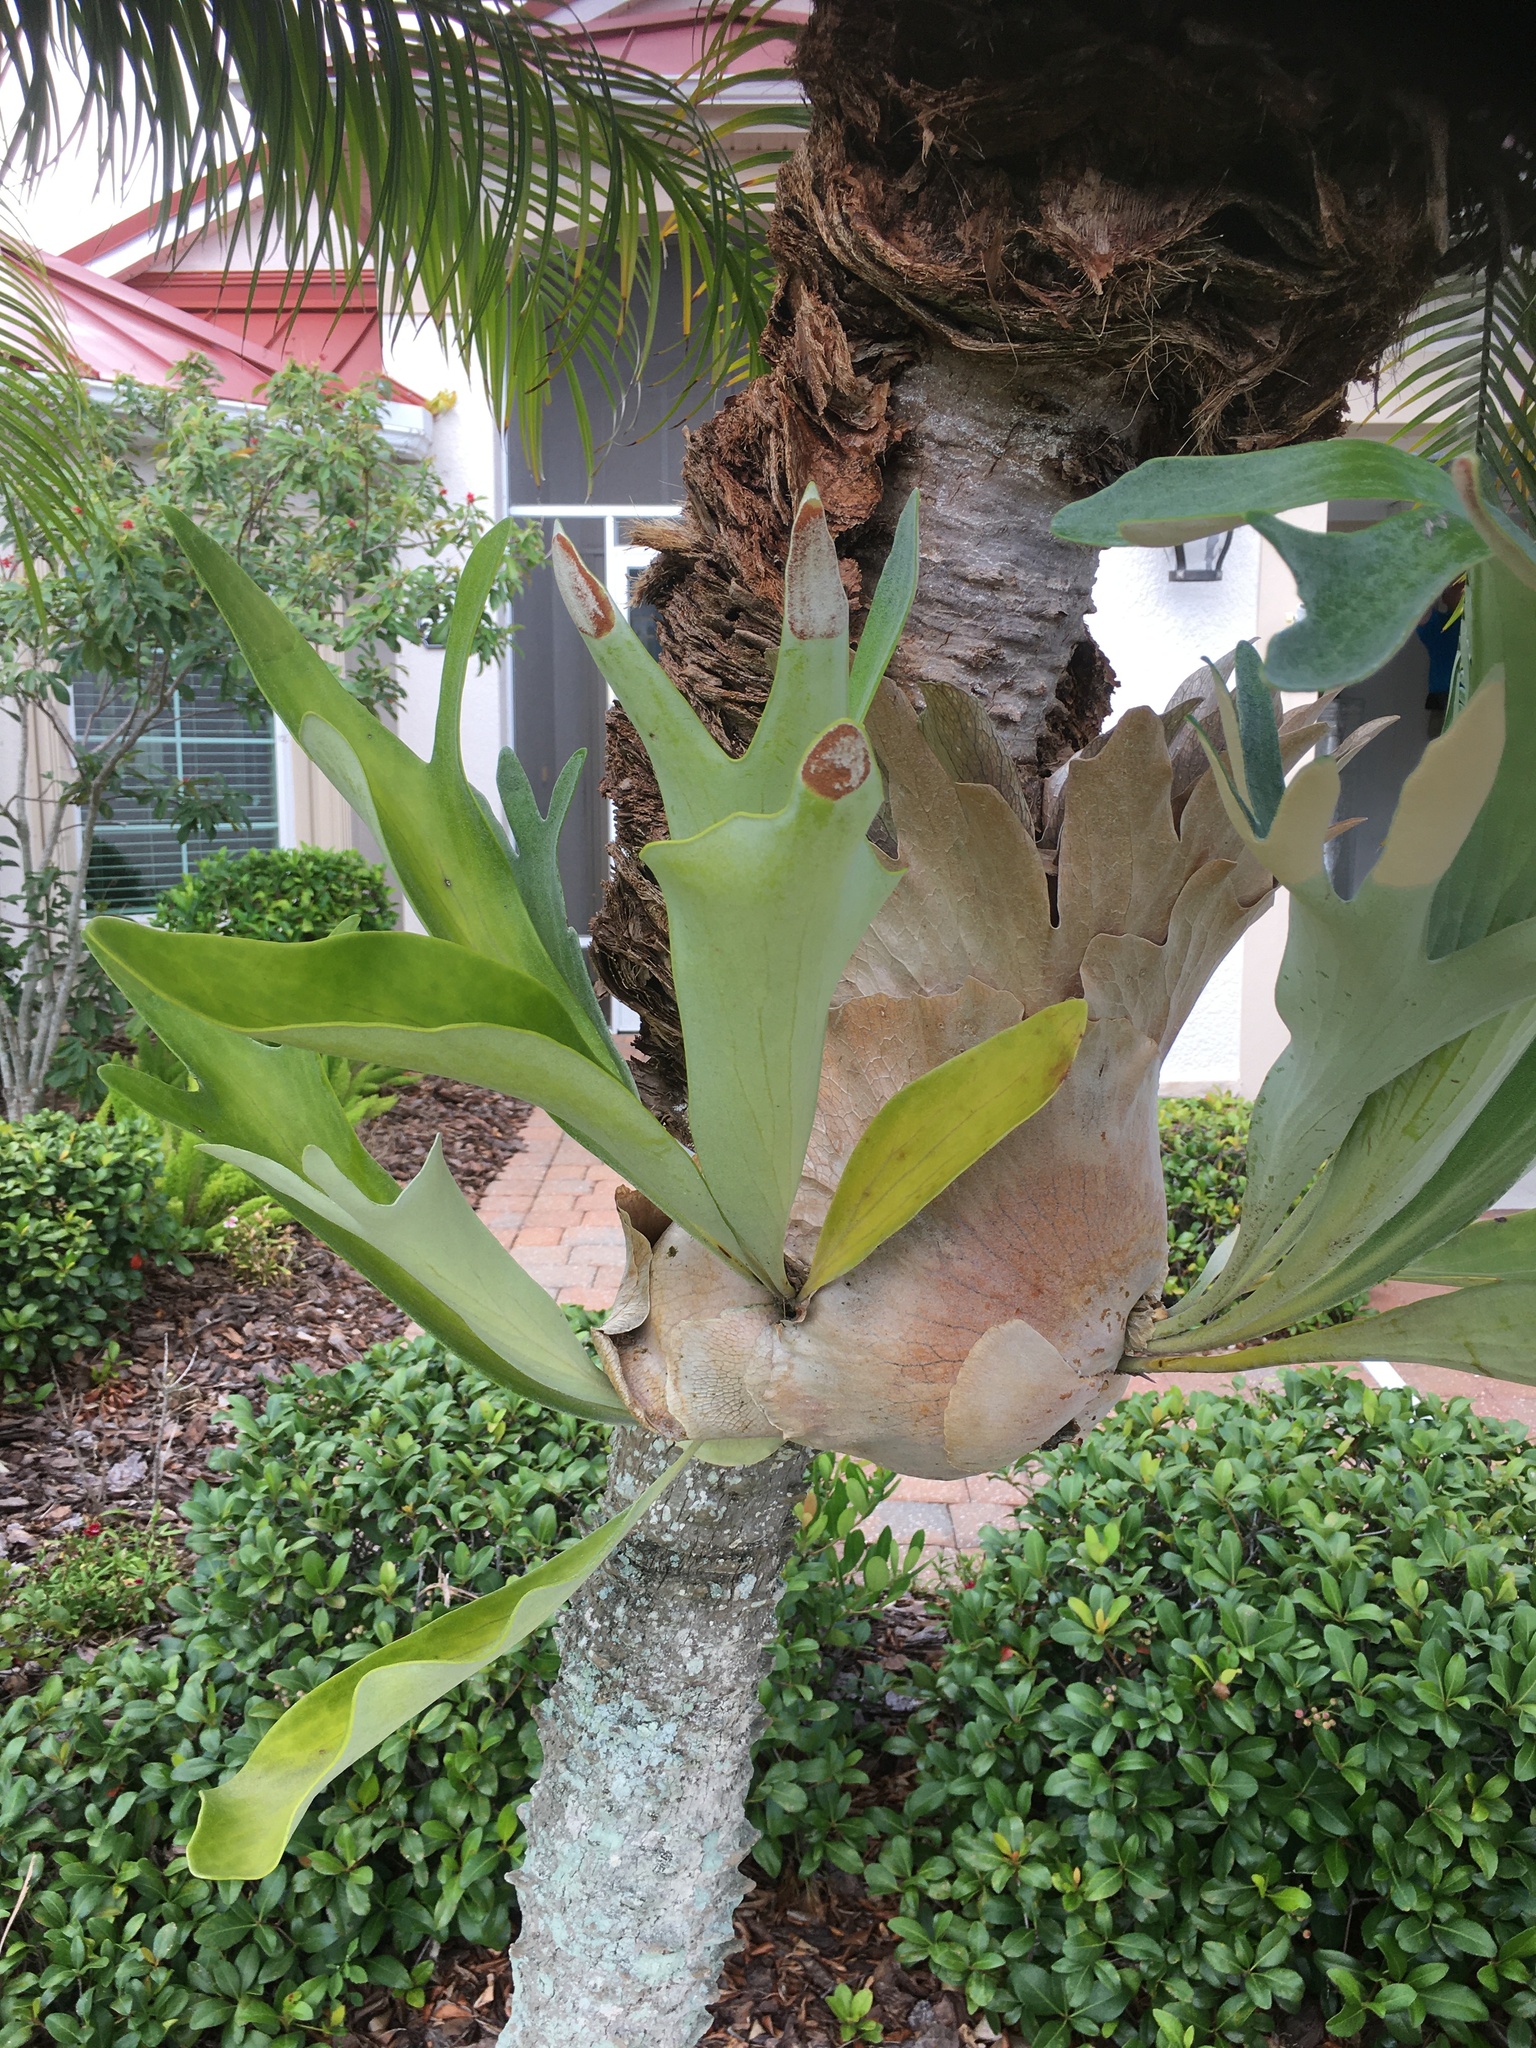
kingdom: Plantae
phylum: Tracheophyta
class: Polypodiopsida
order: Polypodiales
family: Polypodiaceae
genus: Platycerium
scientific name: Platycerium bifurcatum
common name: Elkhorn fern
